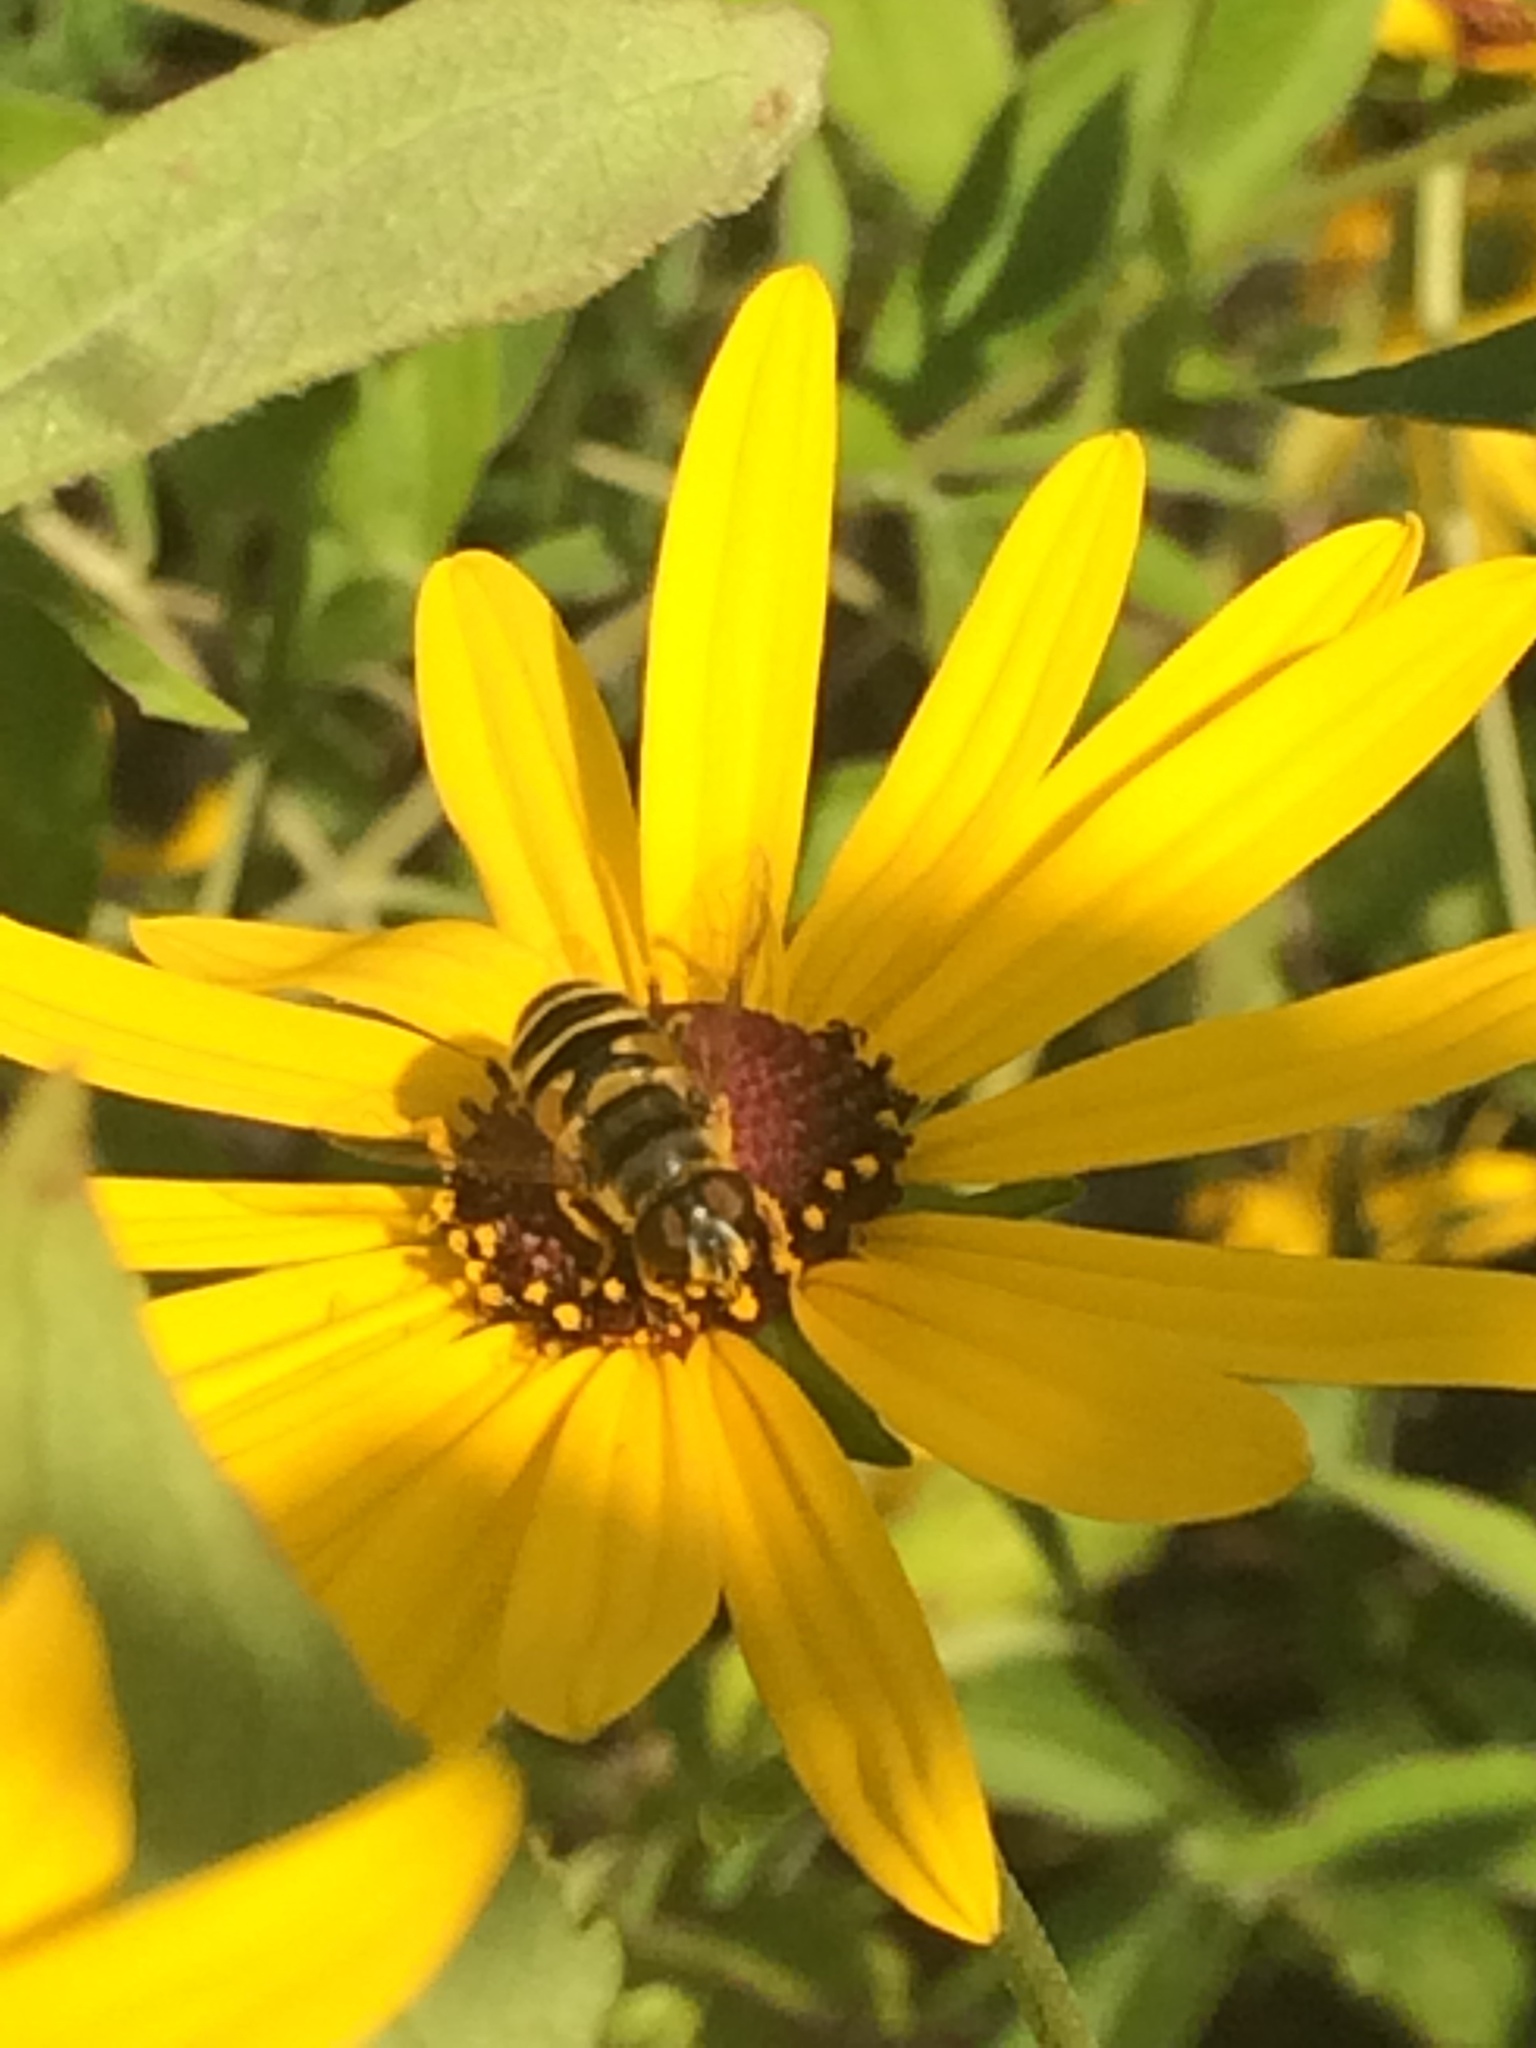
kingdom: Animalia
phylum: Arthropoda
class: Insecta
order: Diptera
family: Syrphidae
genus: Eristalis
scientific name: Eristalis transversa
